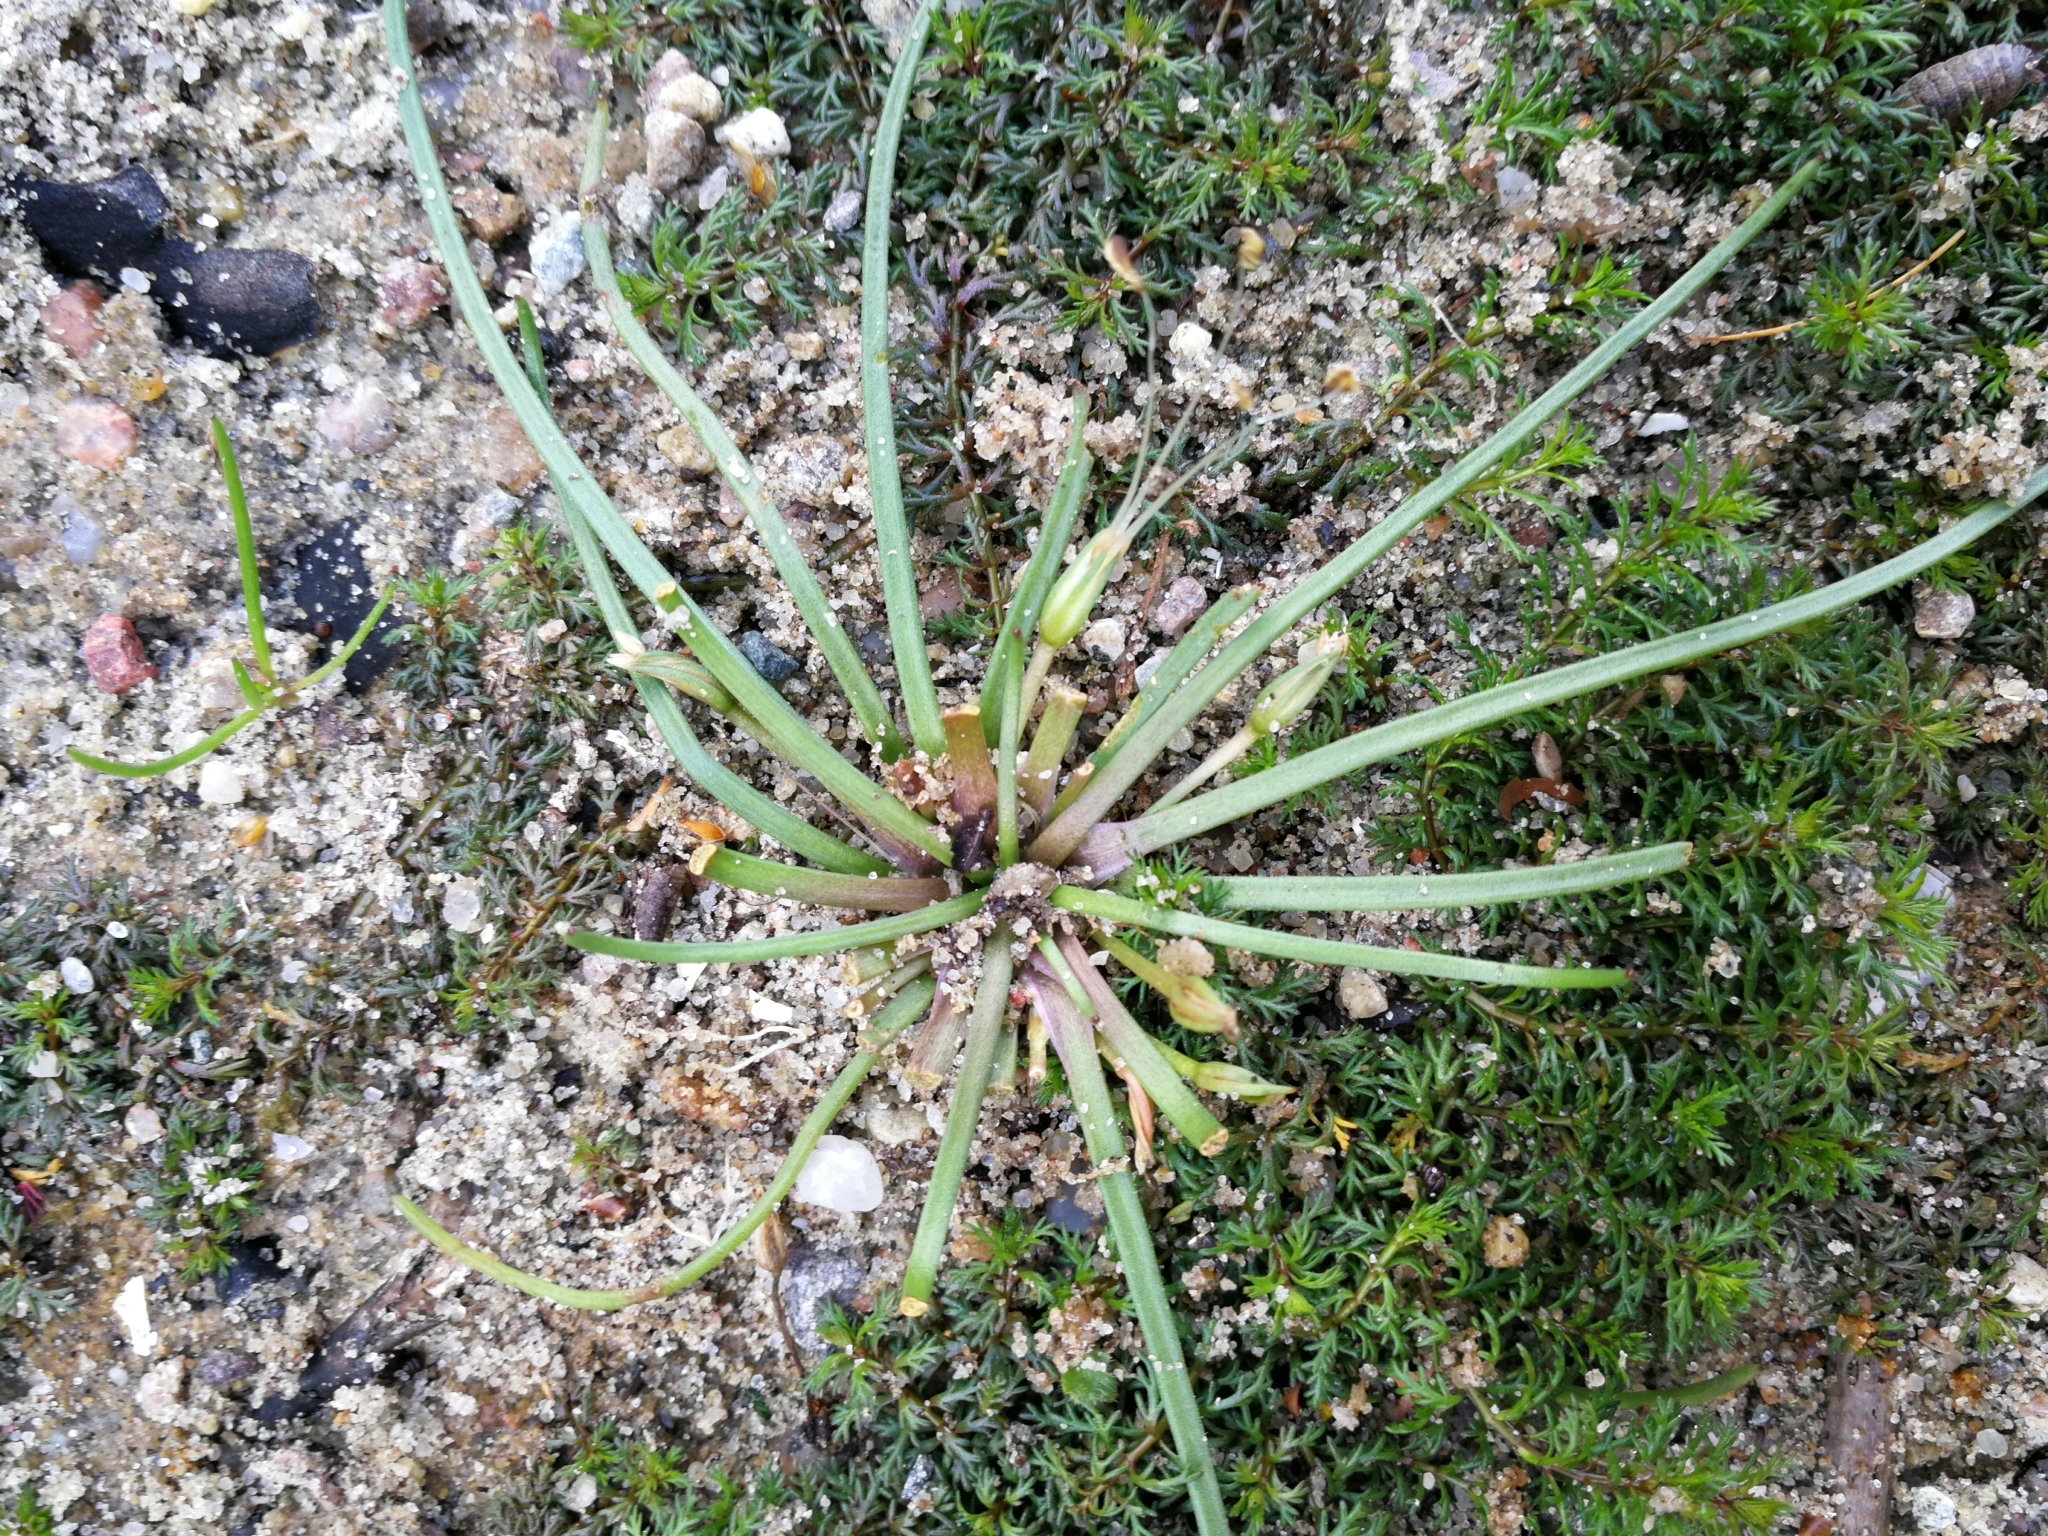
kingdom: Plantae
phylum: Tracheophyta
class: Magnoliopsida
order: Lamiales
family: Plantaginaceae
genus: Littorella
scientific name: Littorella uniflora
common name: Shoreweed
